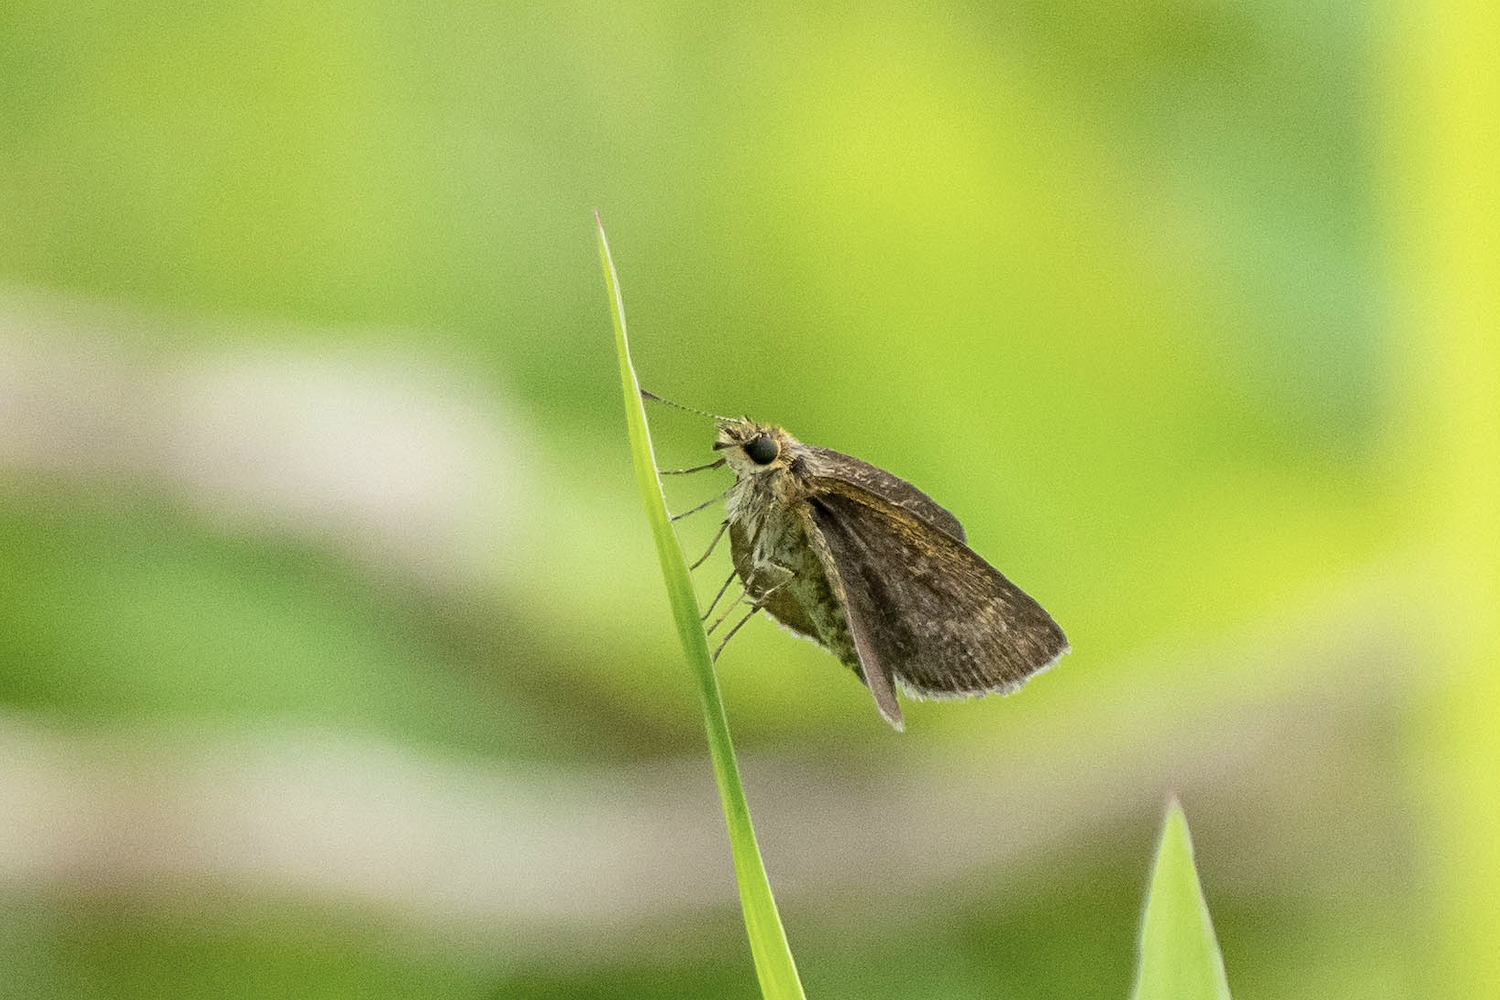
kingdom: Animalia
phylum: Arthropoda
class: Insecta
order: Lepidoptera
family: Hesperiidae
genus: Aeromachus
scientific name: Aeromachus jhora
